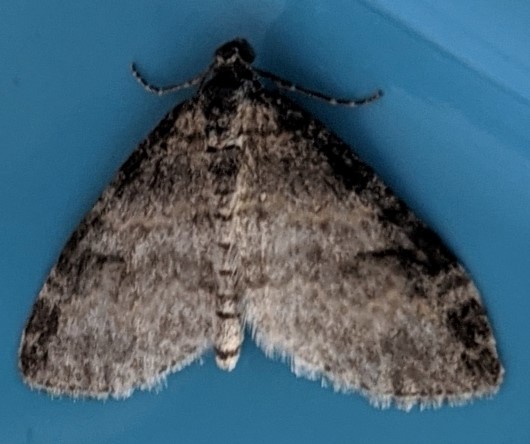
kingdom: Animalia
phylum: Arthropoda
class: Insecta
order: Lepidoptera
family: Geometridae
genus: Lobophora
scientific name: Lobophora nivigerata
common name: Powdered bigwing
